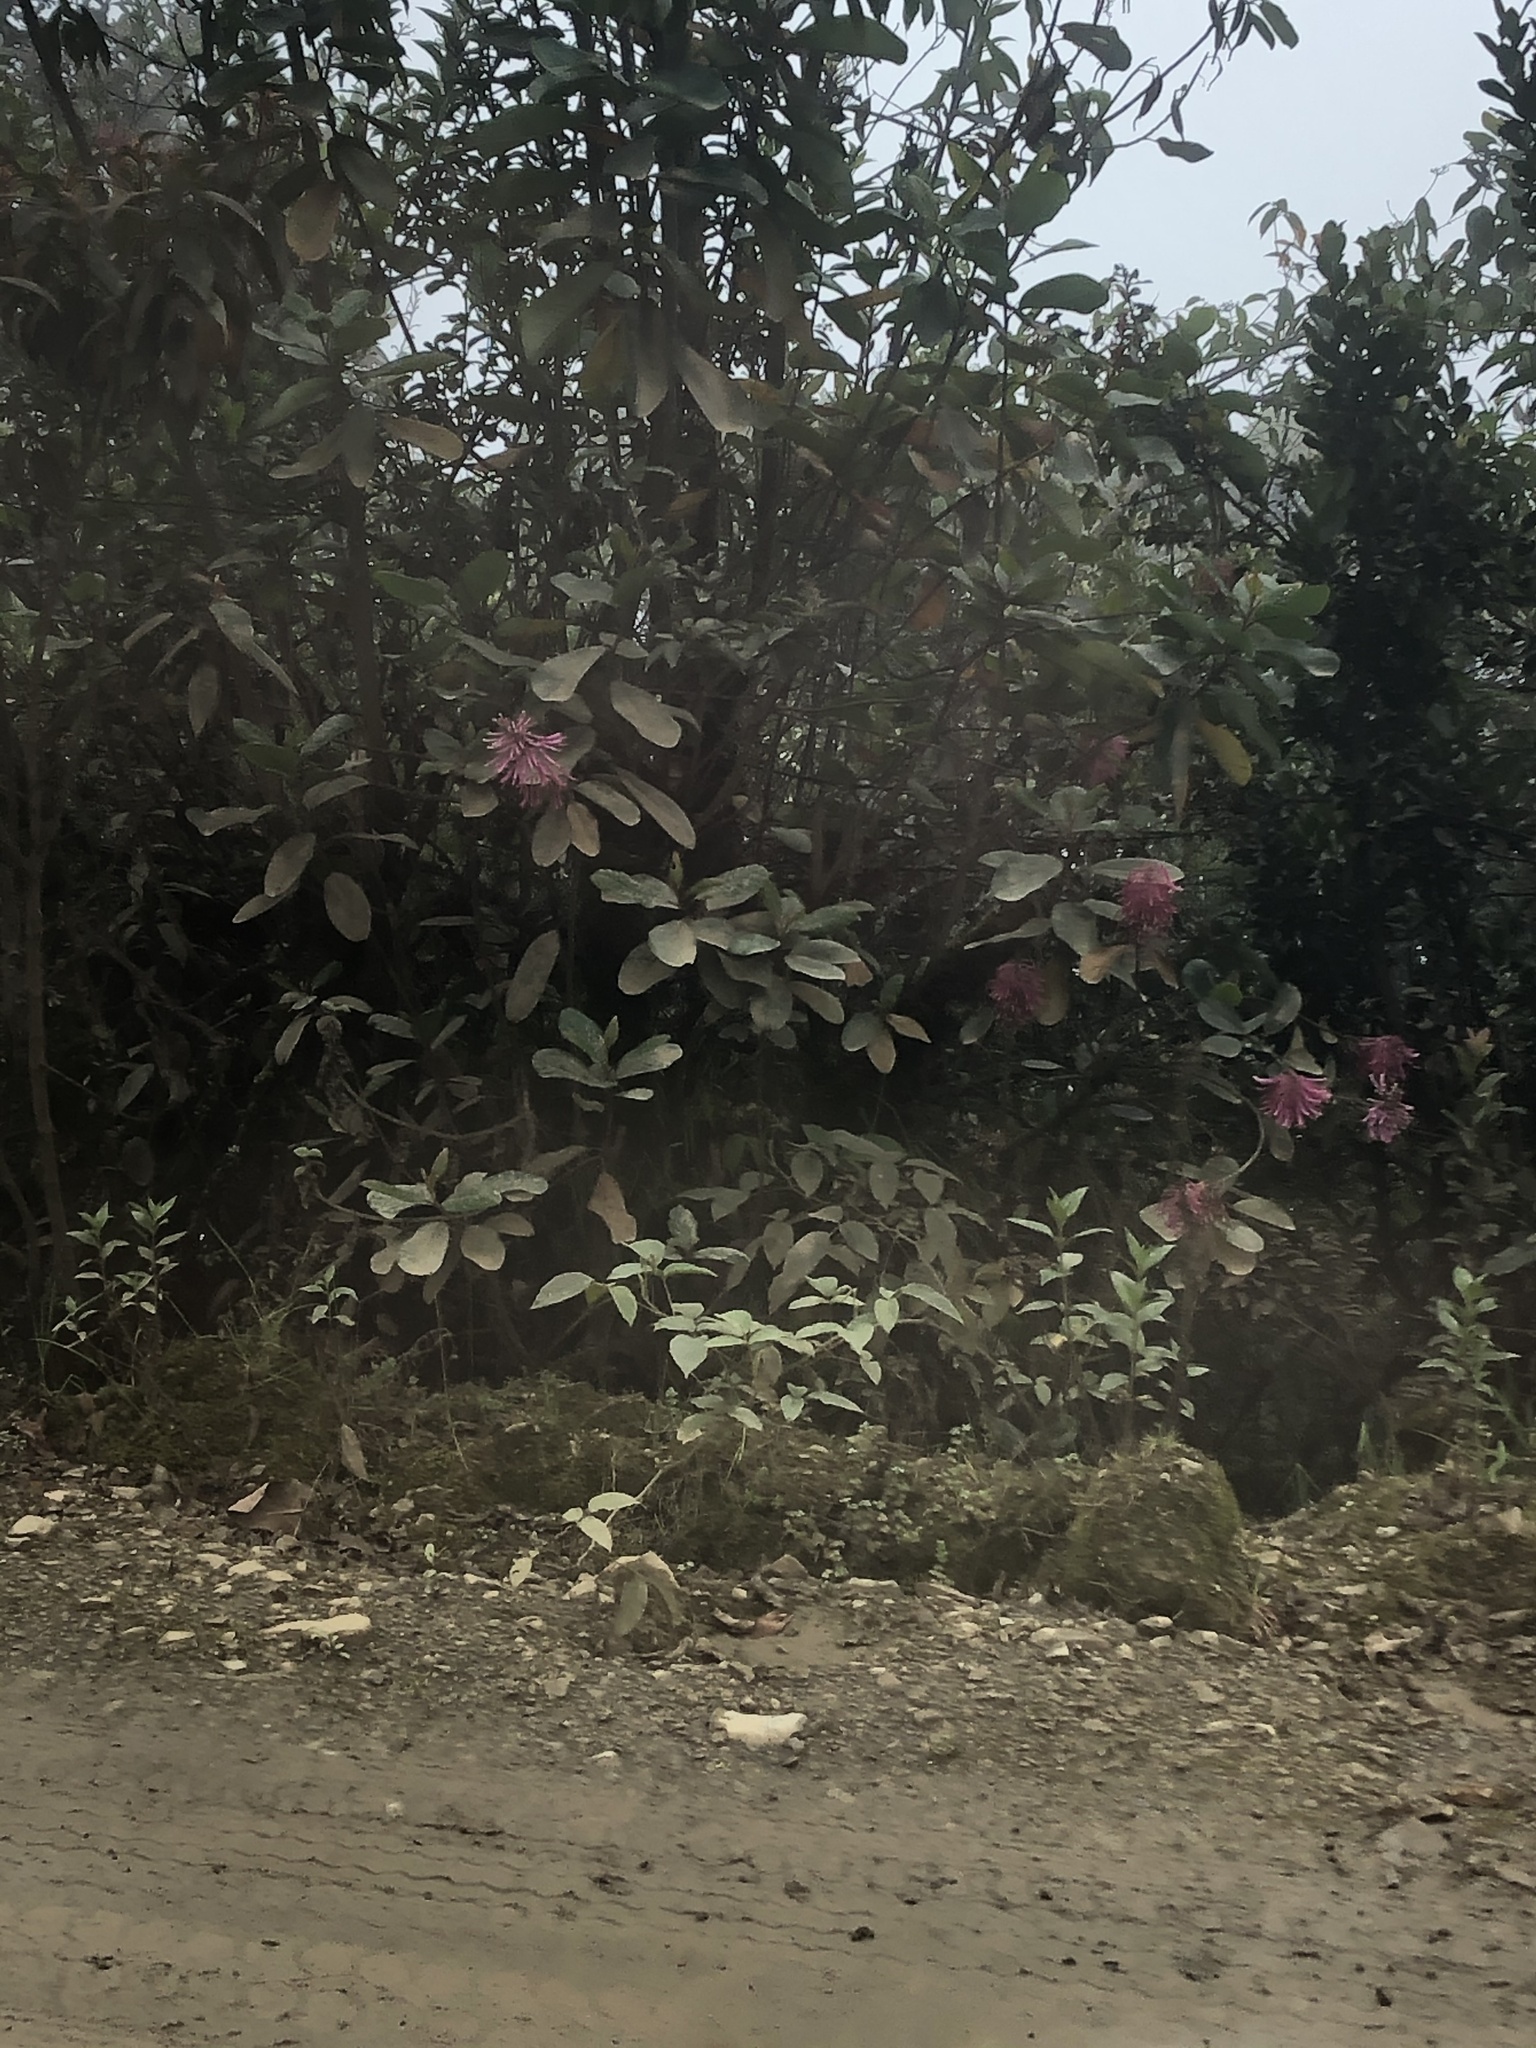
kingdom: Plantae
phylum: Tracheophyta
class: Magnoliopsida
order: Proteales
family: Proteaceae
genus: Oreocallis
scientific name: Oreocallis grandiflora
